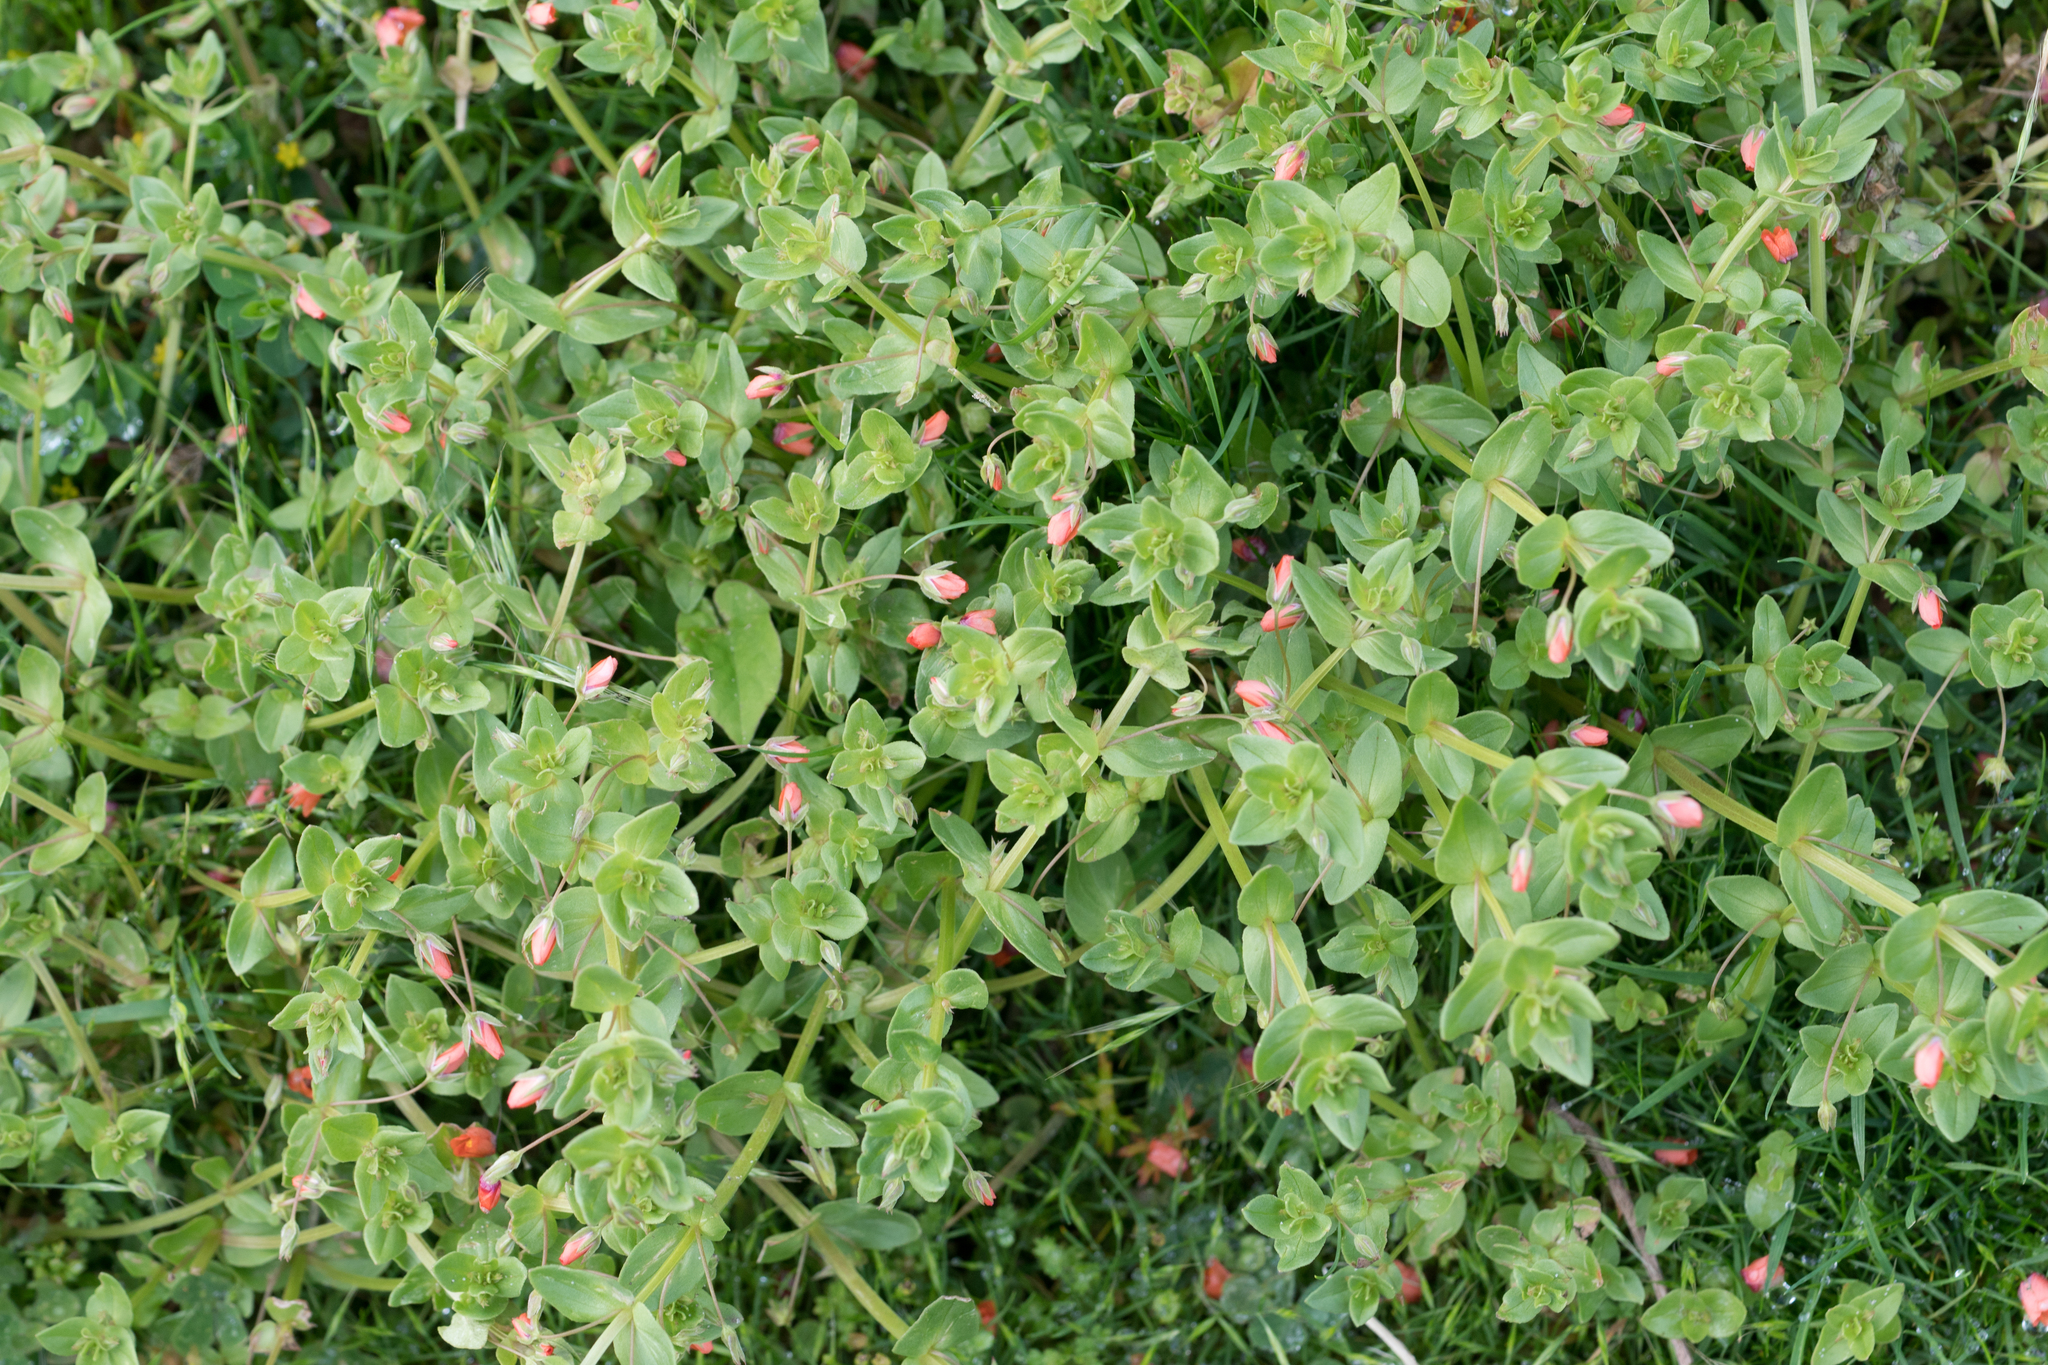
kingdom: Plantae
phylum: Tracheophyta
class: Magnoliopsida
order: Ericales
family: Primulaceae
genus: Lysimachia
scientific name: Lysimachia arvensis
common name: Scarlet pimpernel
